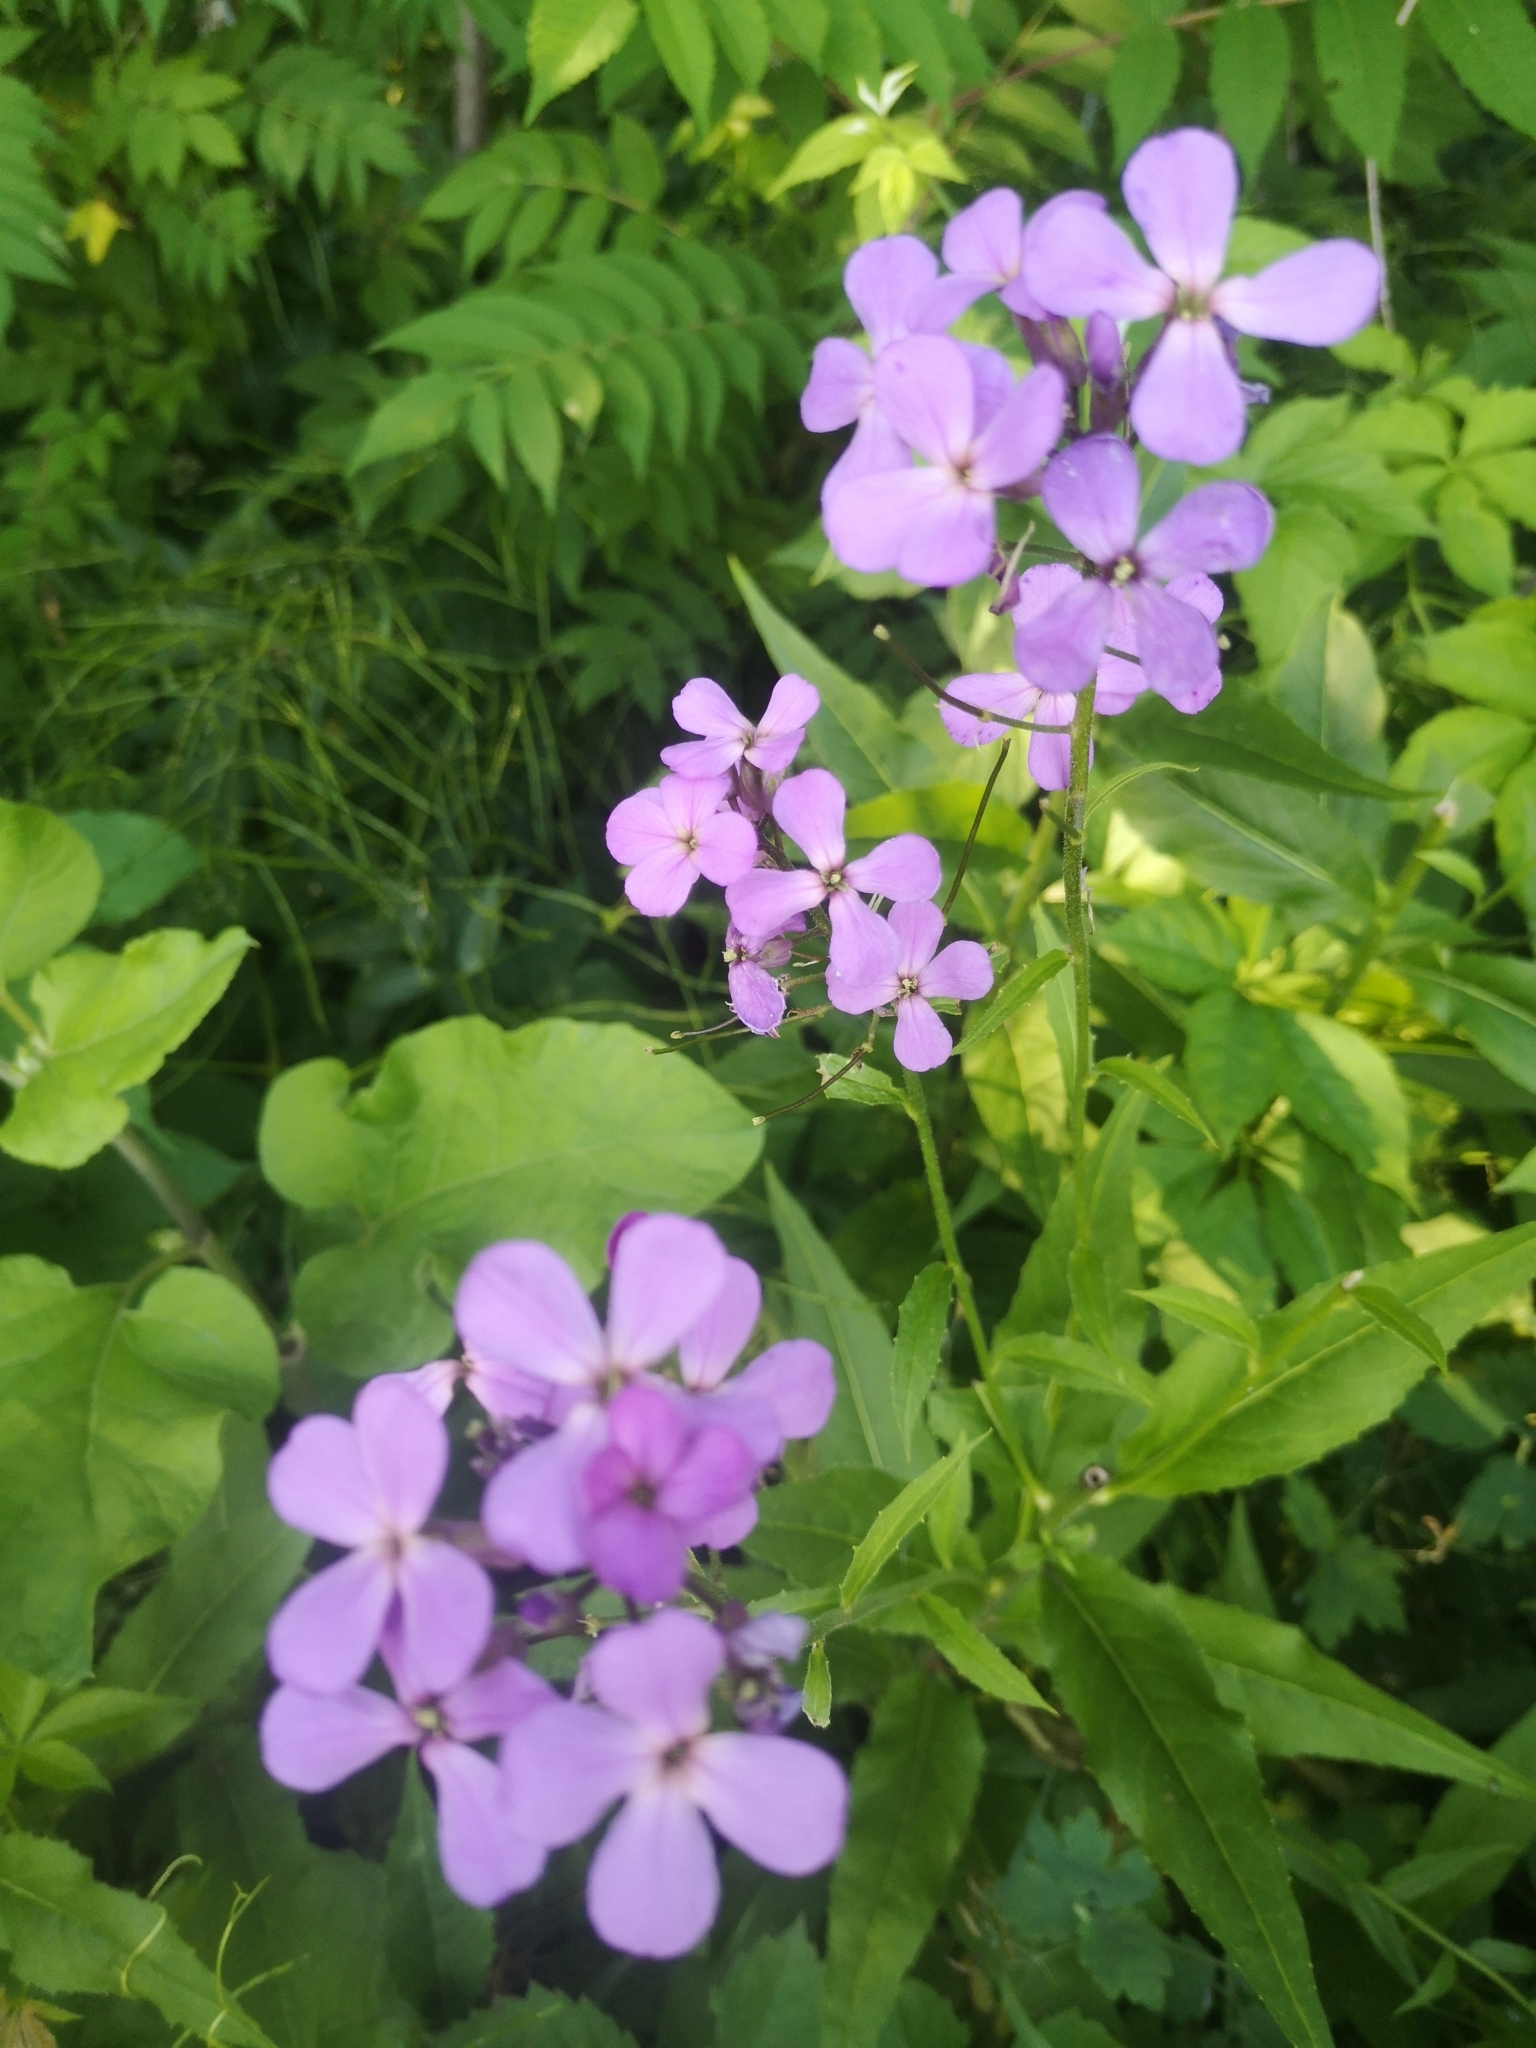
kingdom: Plantae
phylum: Tracheophyta
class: Magnoliopsida
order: Brassicales
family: Brassicaceae
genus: Hesperis
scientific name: Hesperis matronalis
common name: Dame's-violet
